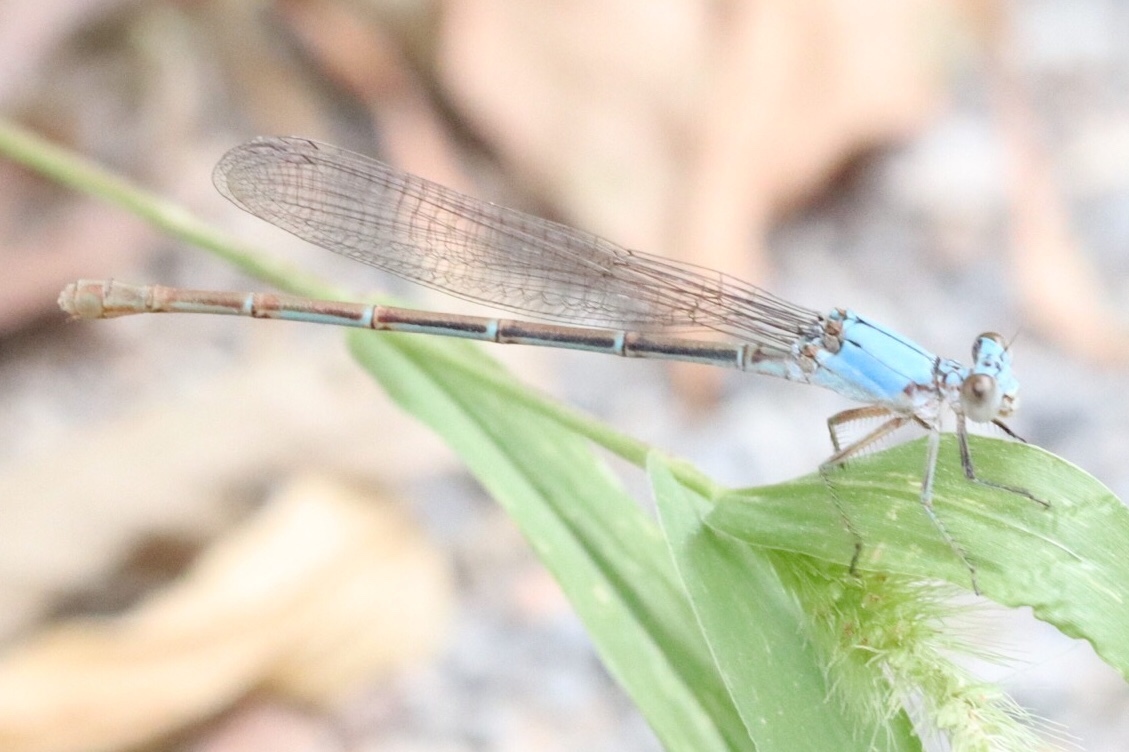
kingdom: Animalia
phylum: Arthropoda
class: Insecta
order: Odonata
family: Coenagrionidae
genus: Argia
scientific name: Argia moesta
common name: Powdered dancer
